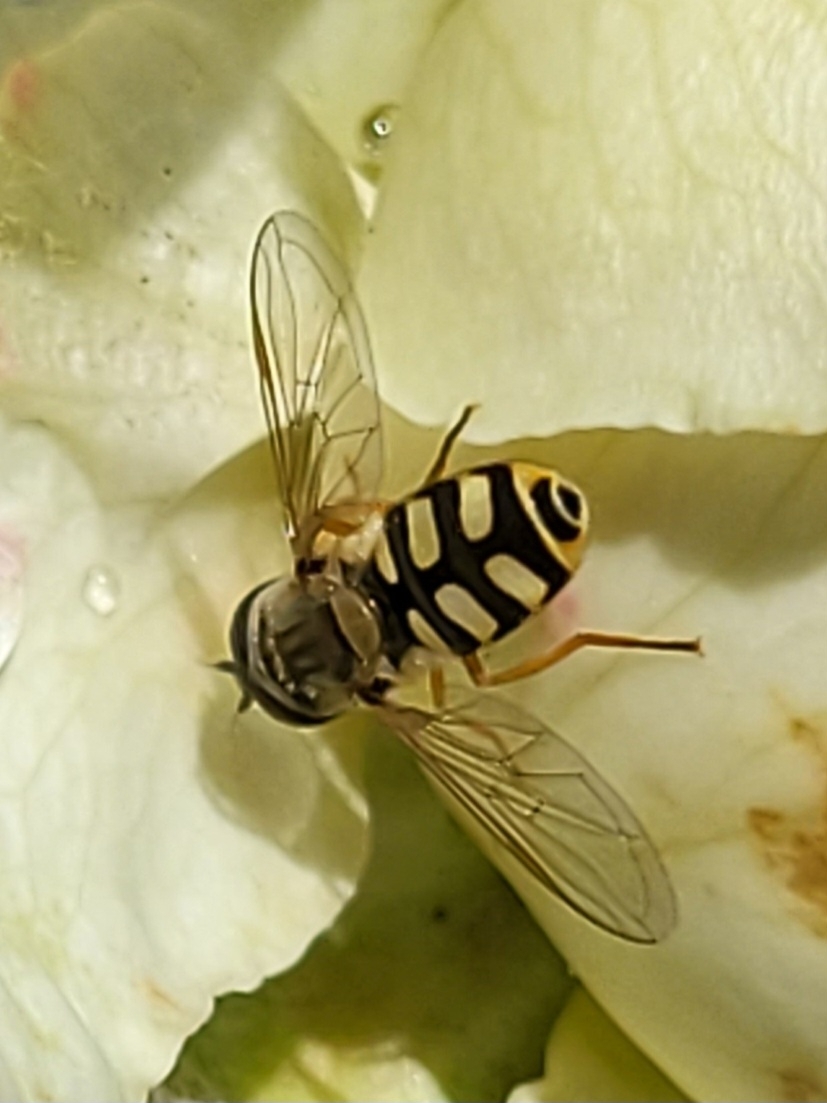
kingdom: Animalia
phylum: Arthropoda
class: Insecta
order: Diptera
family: Syrphidae
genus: Eupeodes
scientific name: Eupeodes corollae
